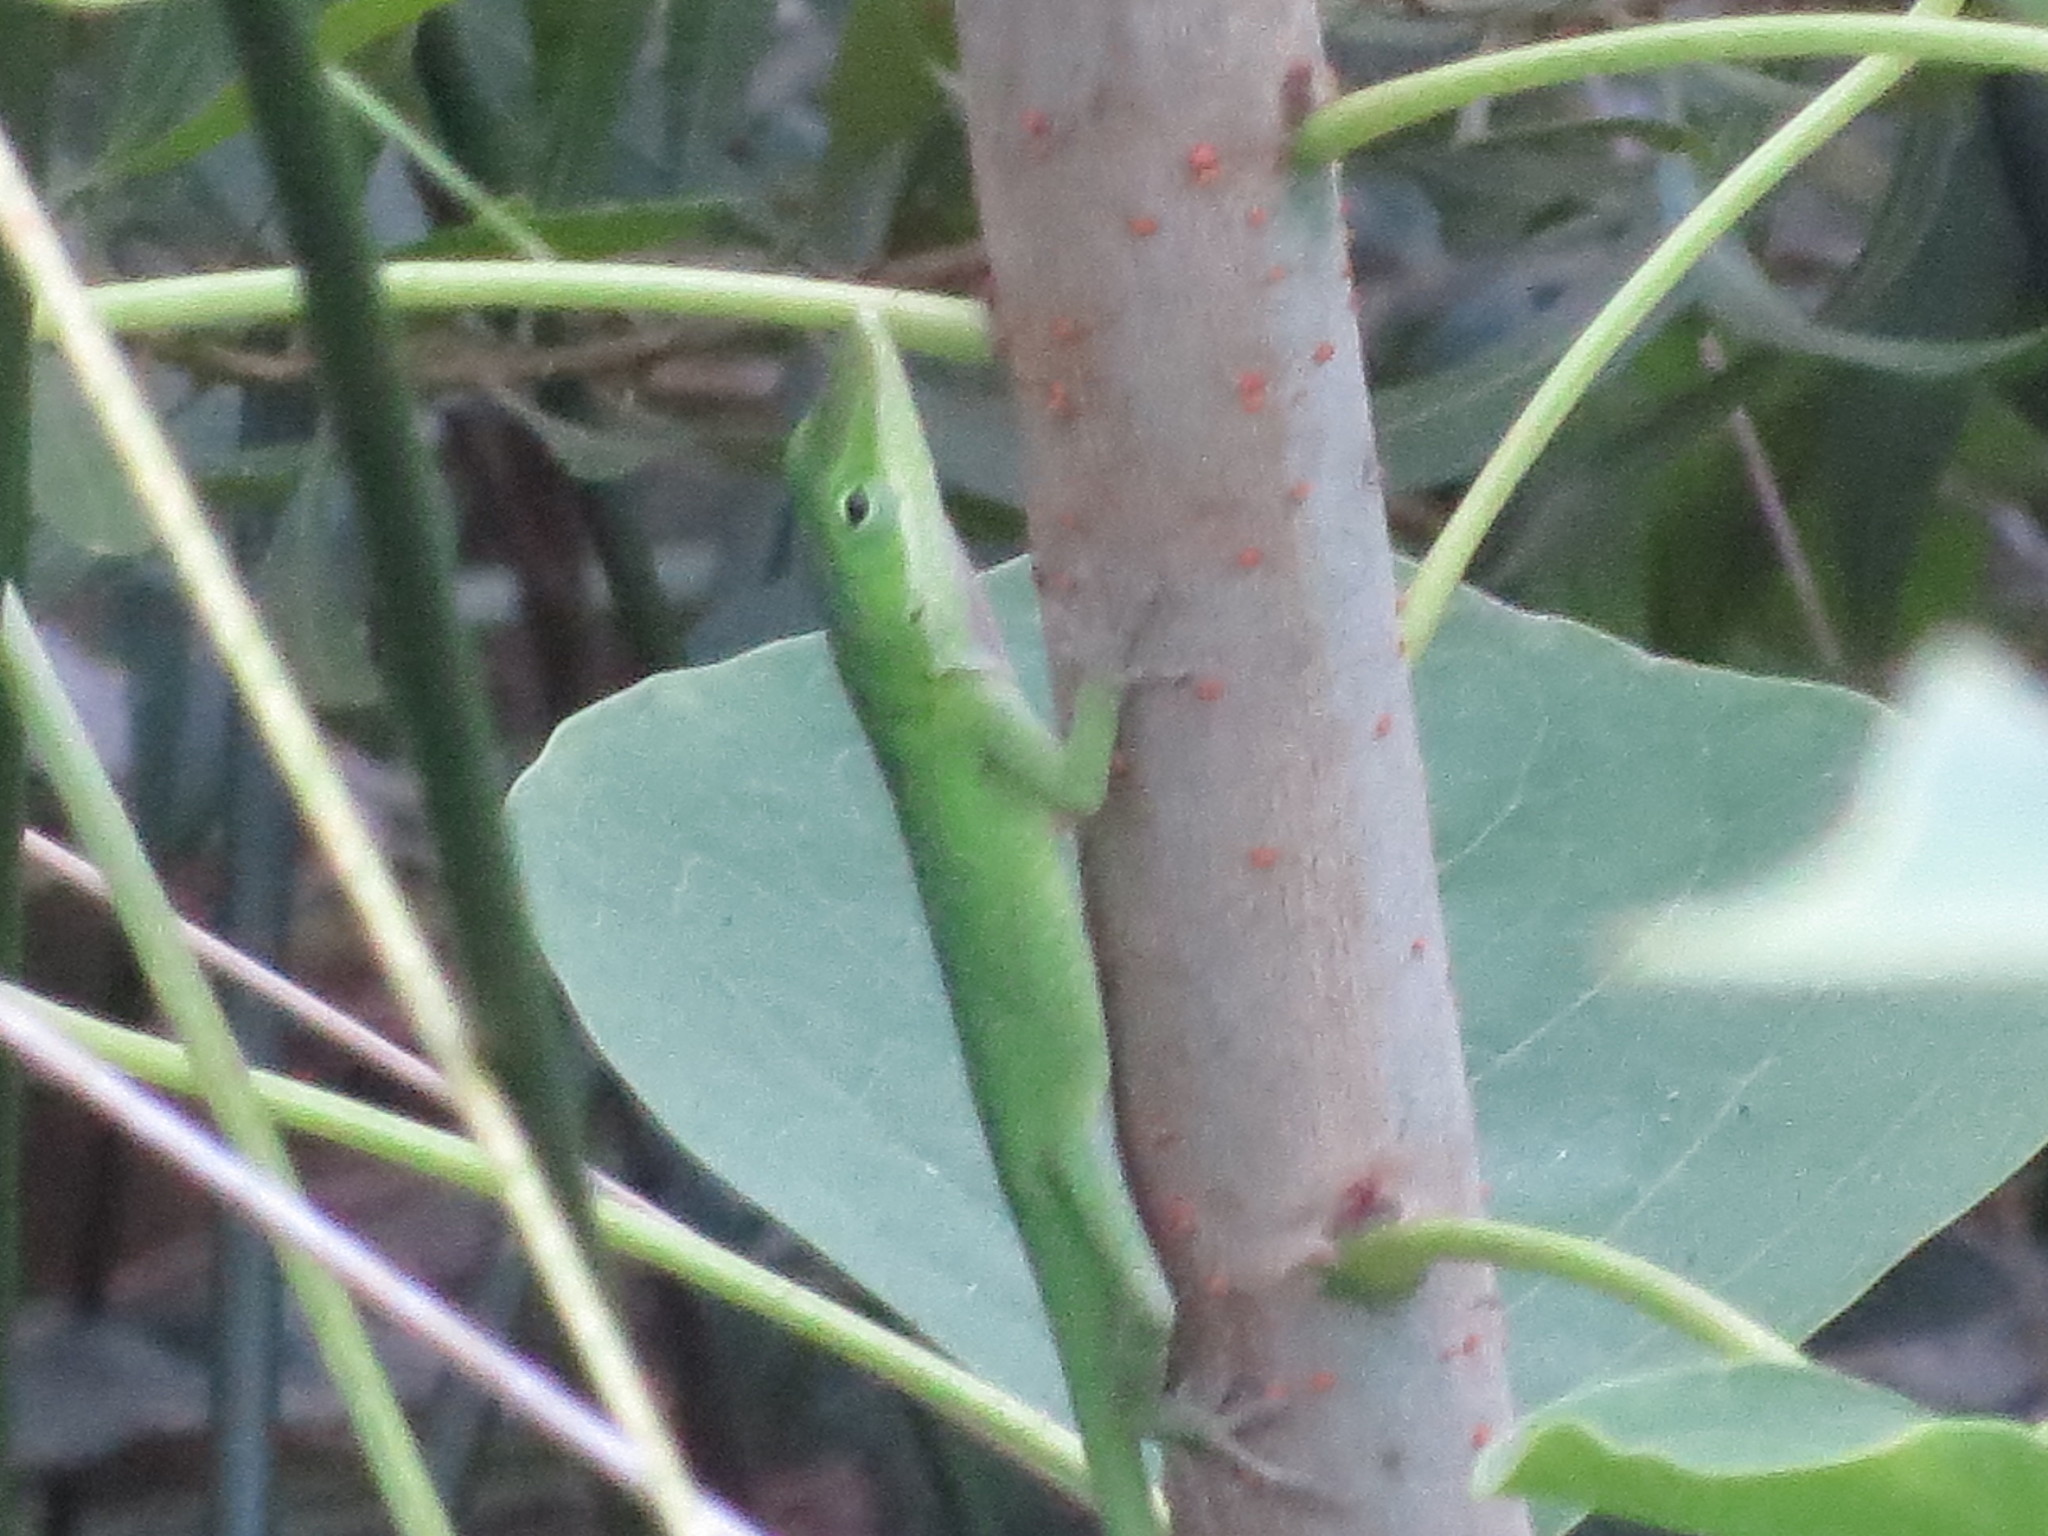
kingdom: Animalia
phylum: Chordata
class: Squamata
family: Dactyloidae
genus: Anolis
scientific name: Anolis carolinensis
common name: Green anole
